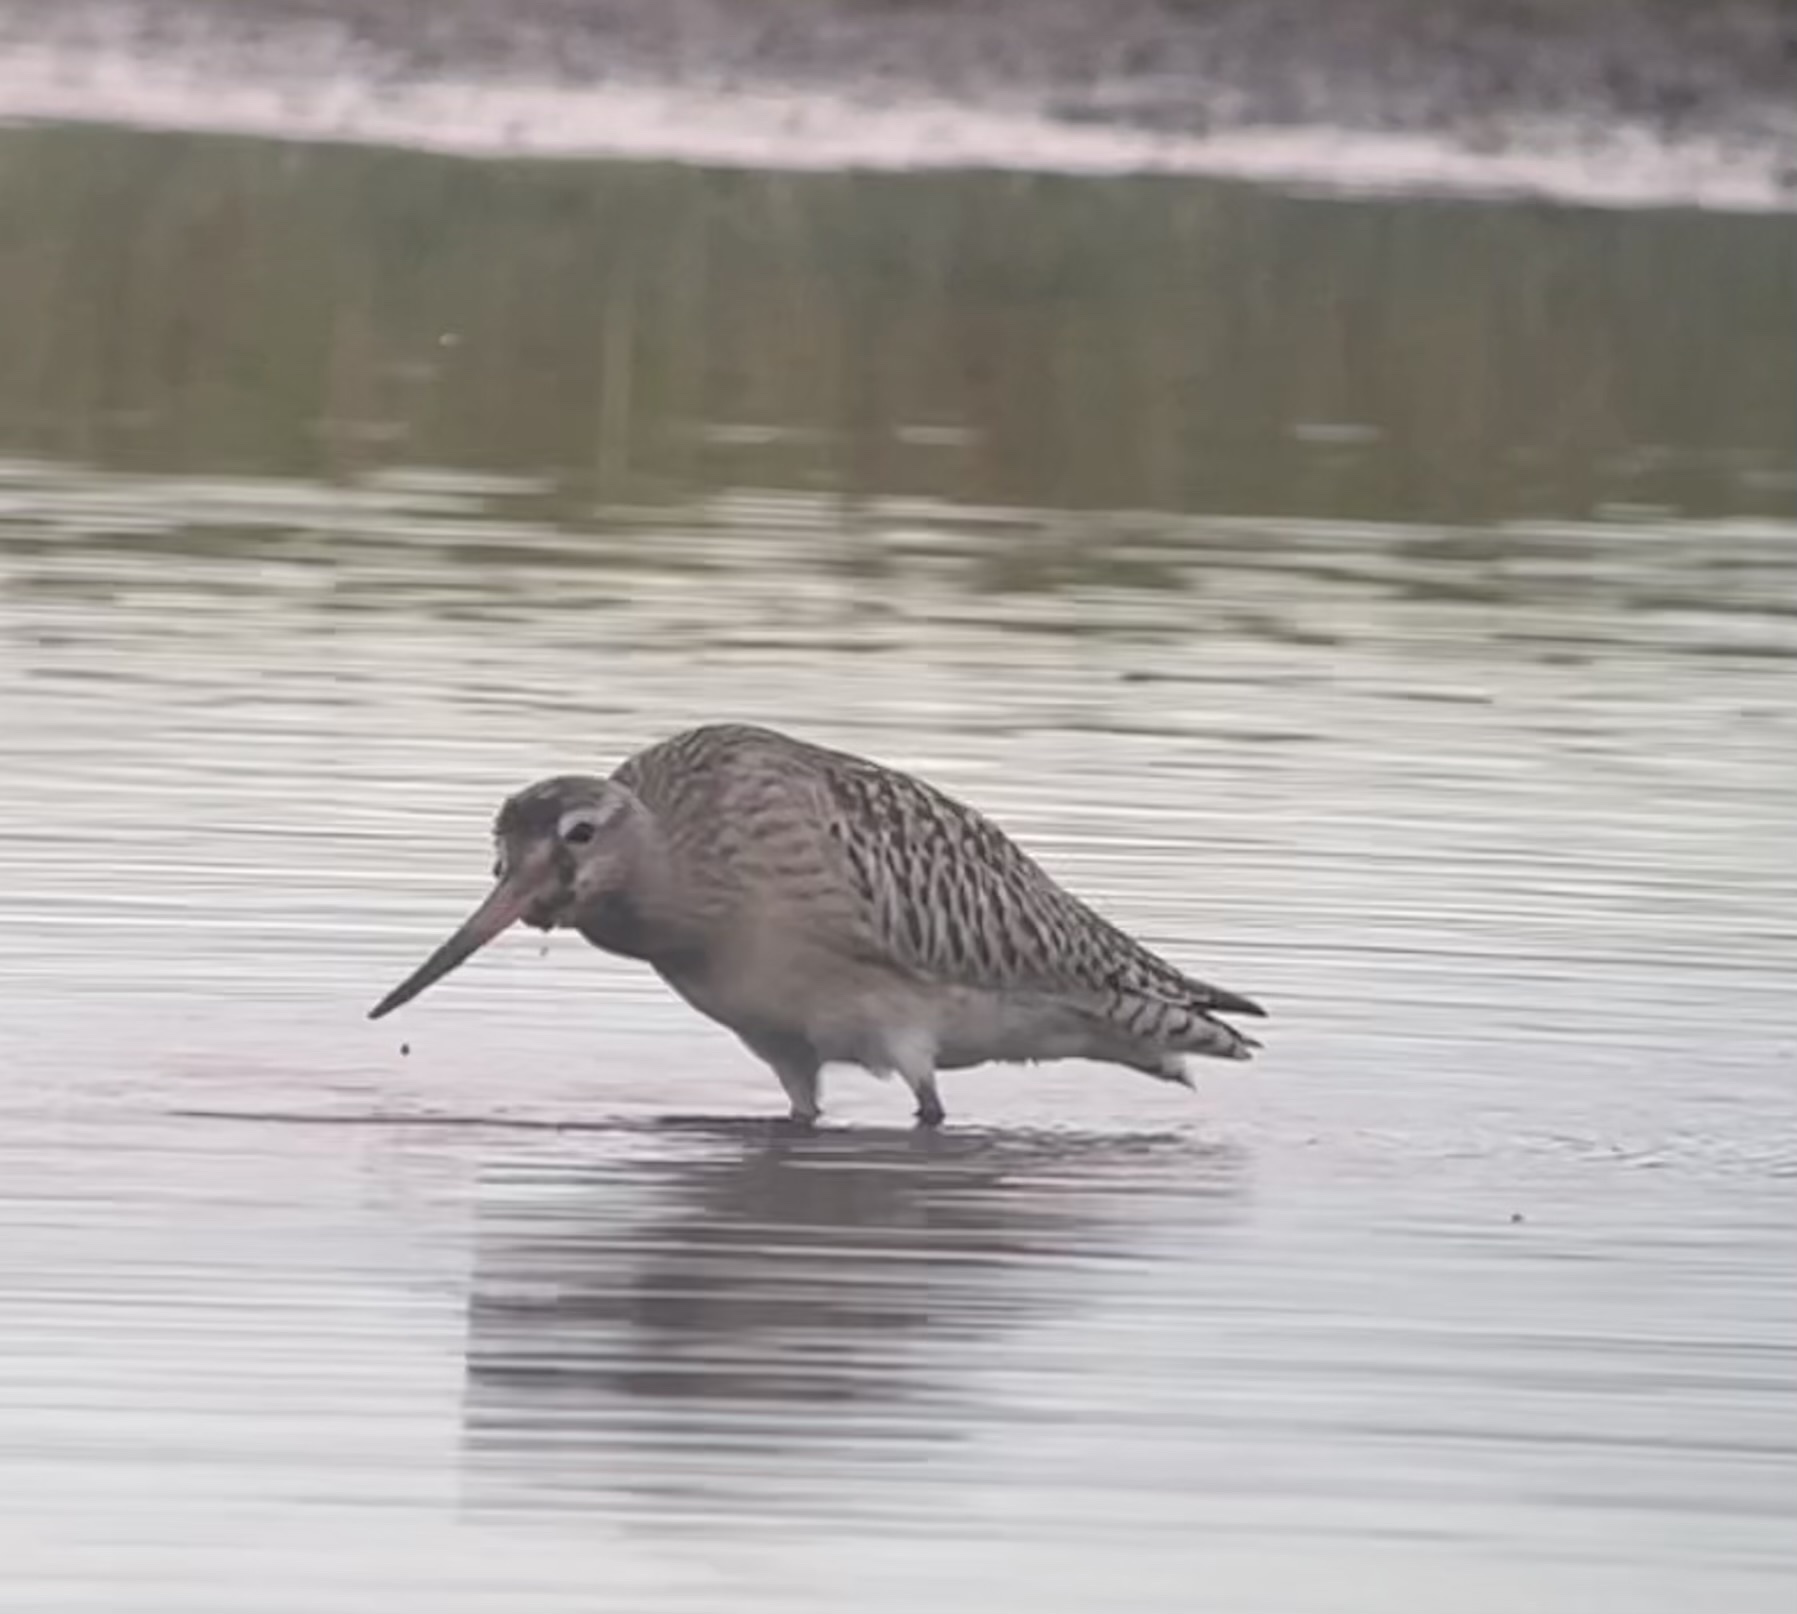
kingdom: Animalia
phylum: Chordata
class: Aves
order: Charadriiformes
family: Scolopacidae
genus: Limosa
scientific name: Limosa lapponica
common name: Bar-tailed godwit
